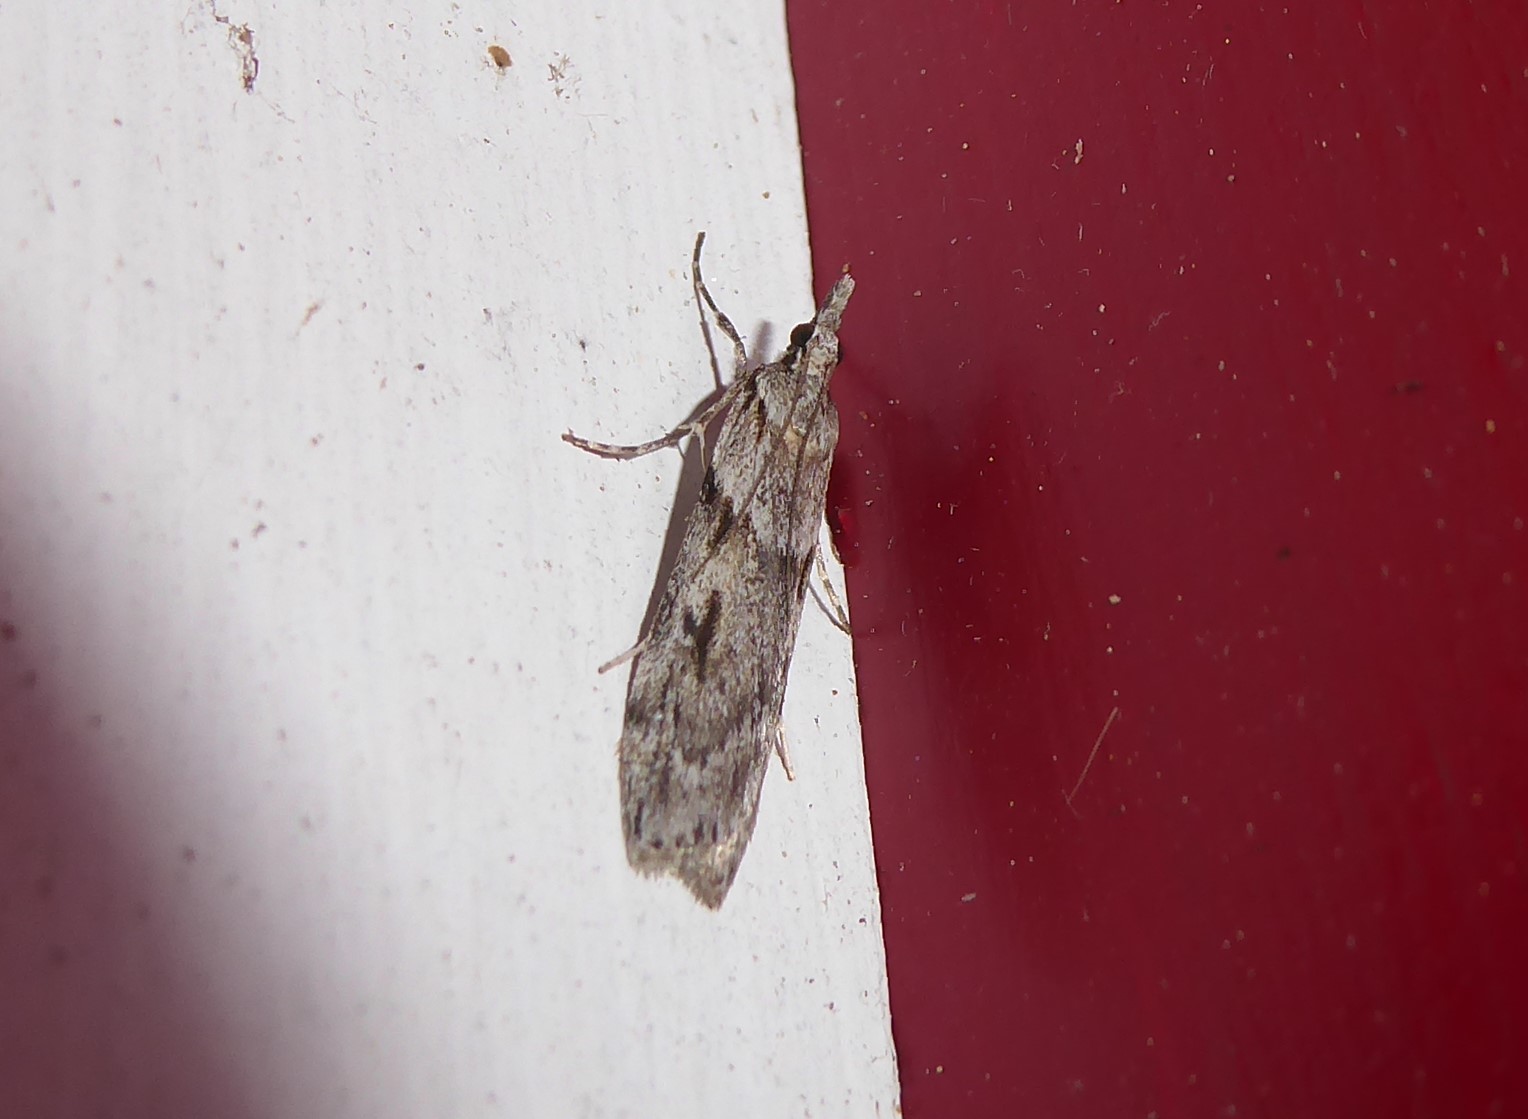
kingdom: Animalia
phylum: Arthropoda
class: Insecta
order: Lepidoptera
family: Crambidae
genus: Scoparia
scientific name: Scoparia halopis
